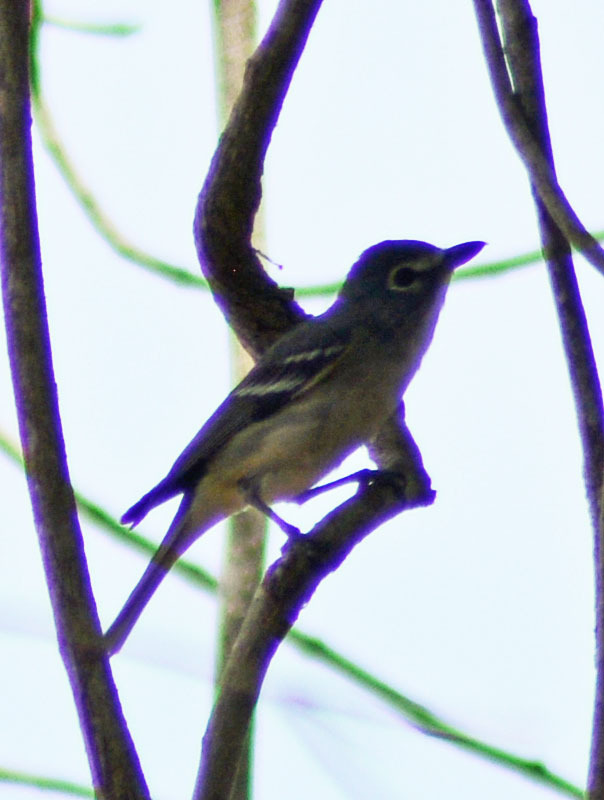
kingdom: Animalia
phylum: Chordata
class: Aves
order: Passeriformes
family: Vireonidae
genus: Vireo
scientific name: Vireo cassinii
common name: Cassin's vireo
